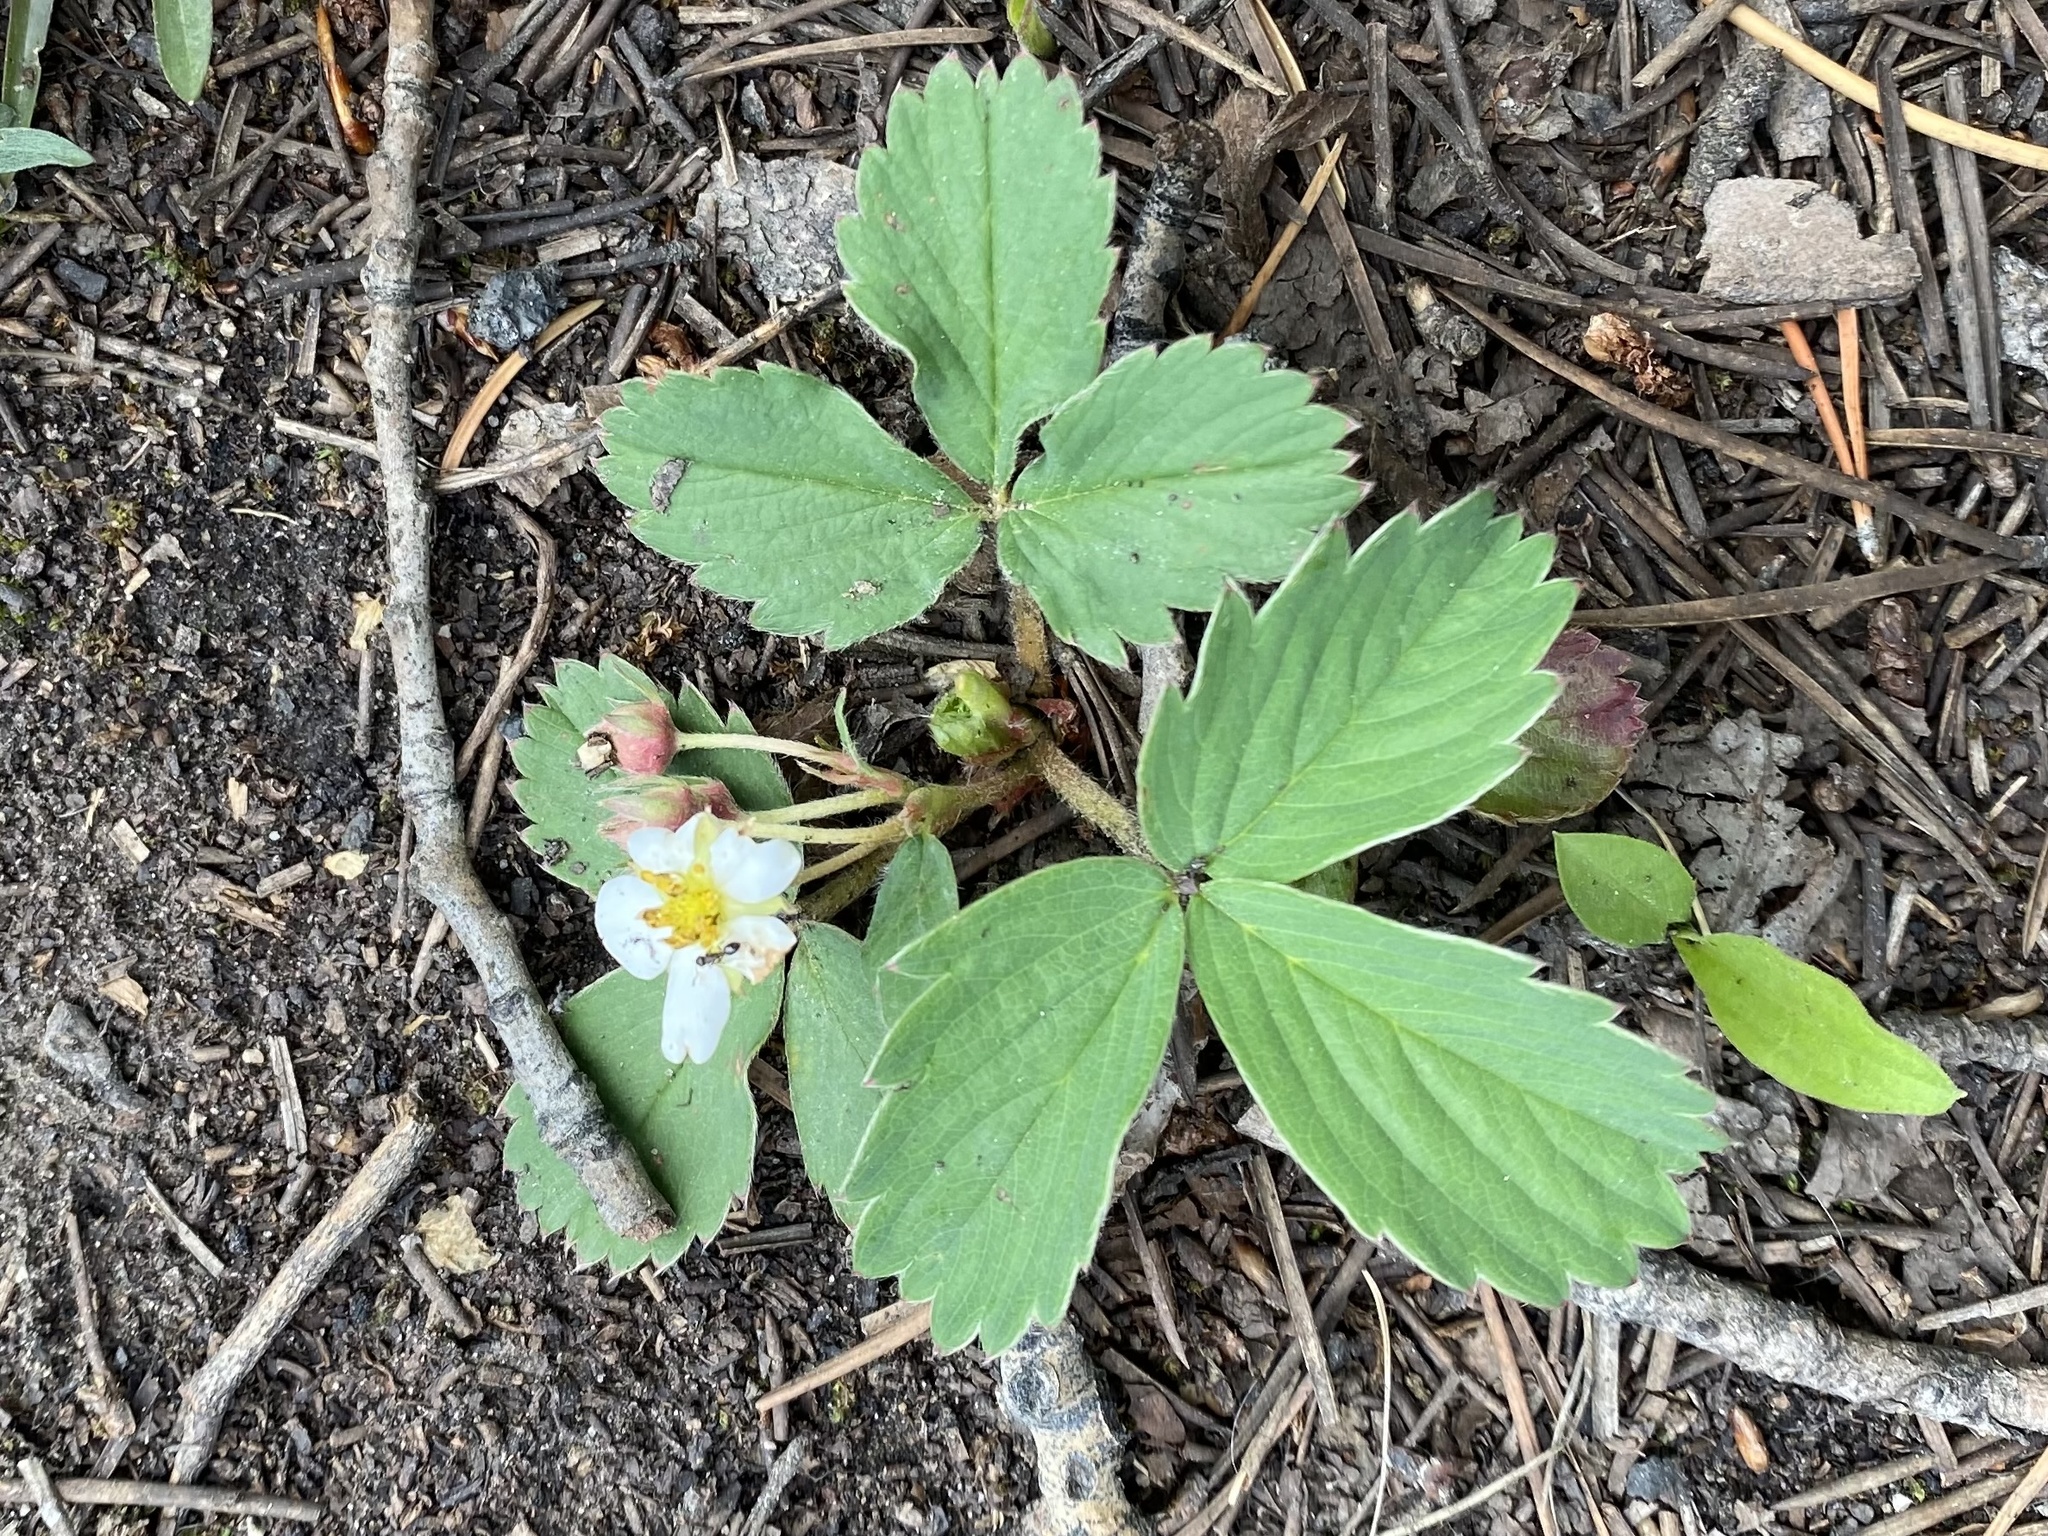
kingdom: Plantae
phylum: Tracheophyta
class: Magnoliopsida
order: Rosales
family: Rosaceae
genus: Fragaria
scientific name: Fragaria virginiana
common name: Thickleaved wild strawberry
